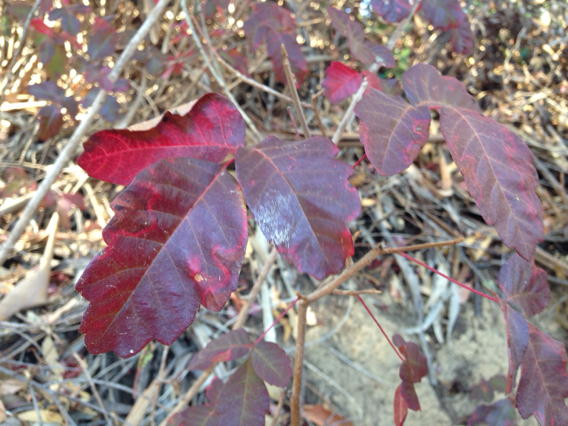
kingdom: Plantae
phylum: Tracheophyta
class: Magnoliopsida
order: Sapindales
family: Anacardiaceae
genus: Toxicodendron
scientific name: Toxicodendron diversilobum
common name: Pacific poison-oak
